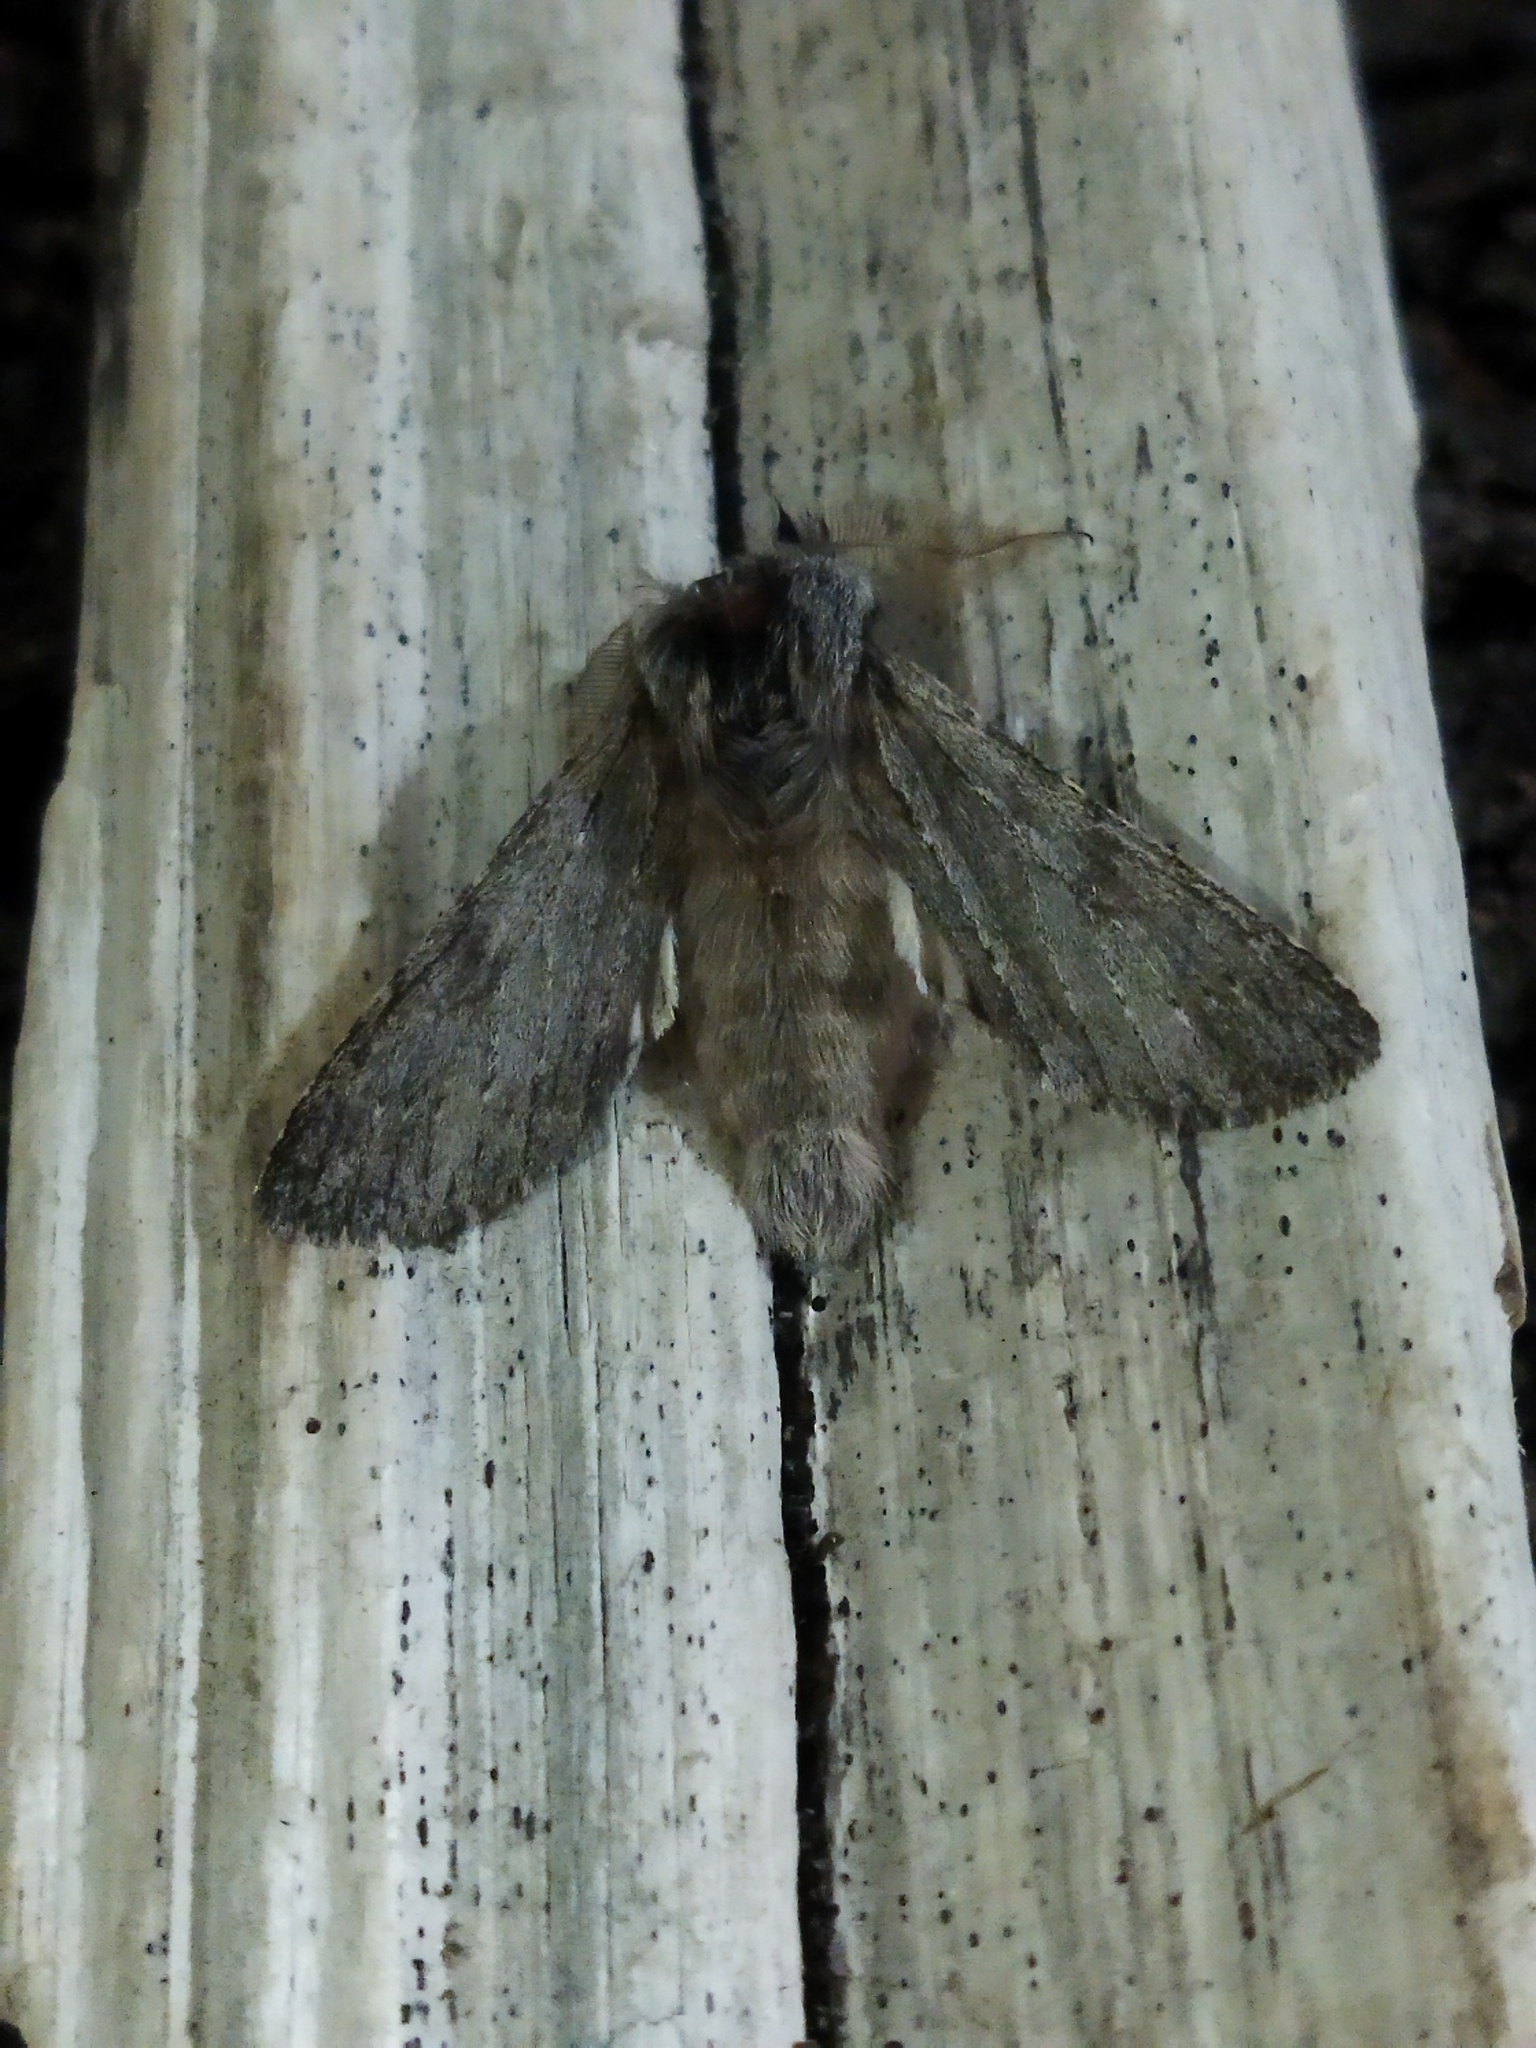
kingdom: Animalia
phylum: Arthropoda
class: Insecta
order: Lepidoptera
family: Notodontidae
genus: Dicranura
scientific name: Dicranura ulmi
